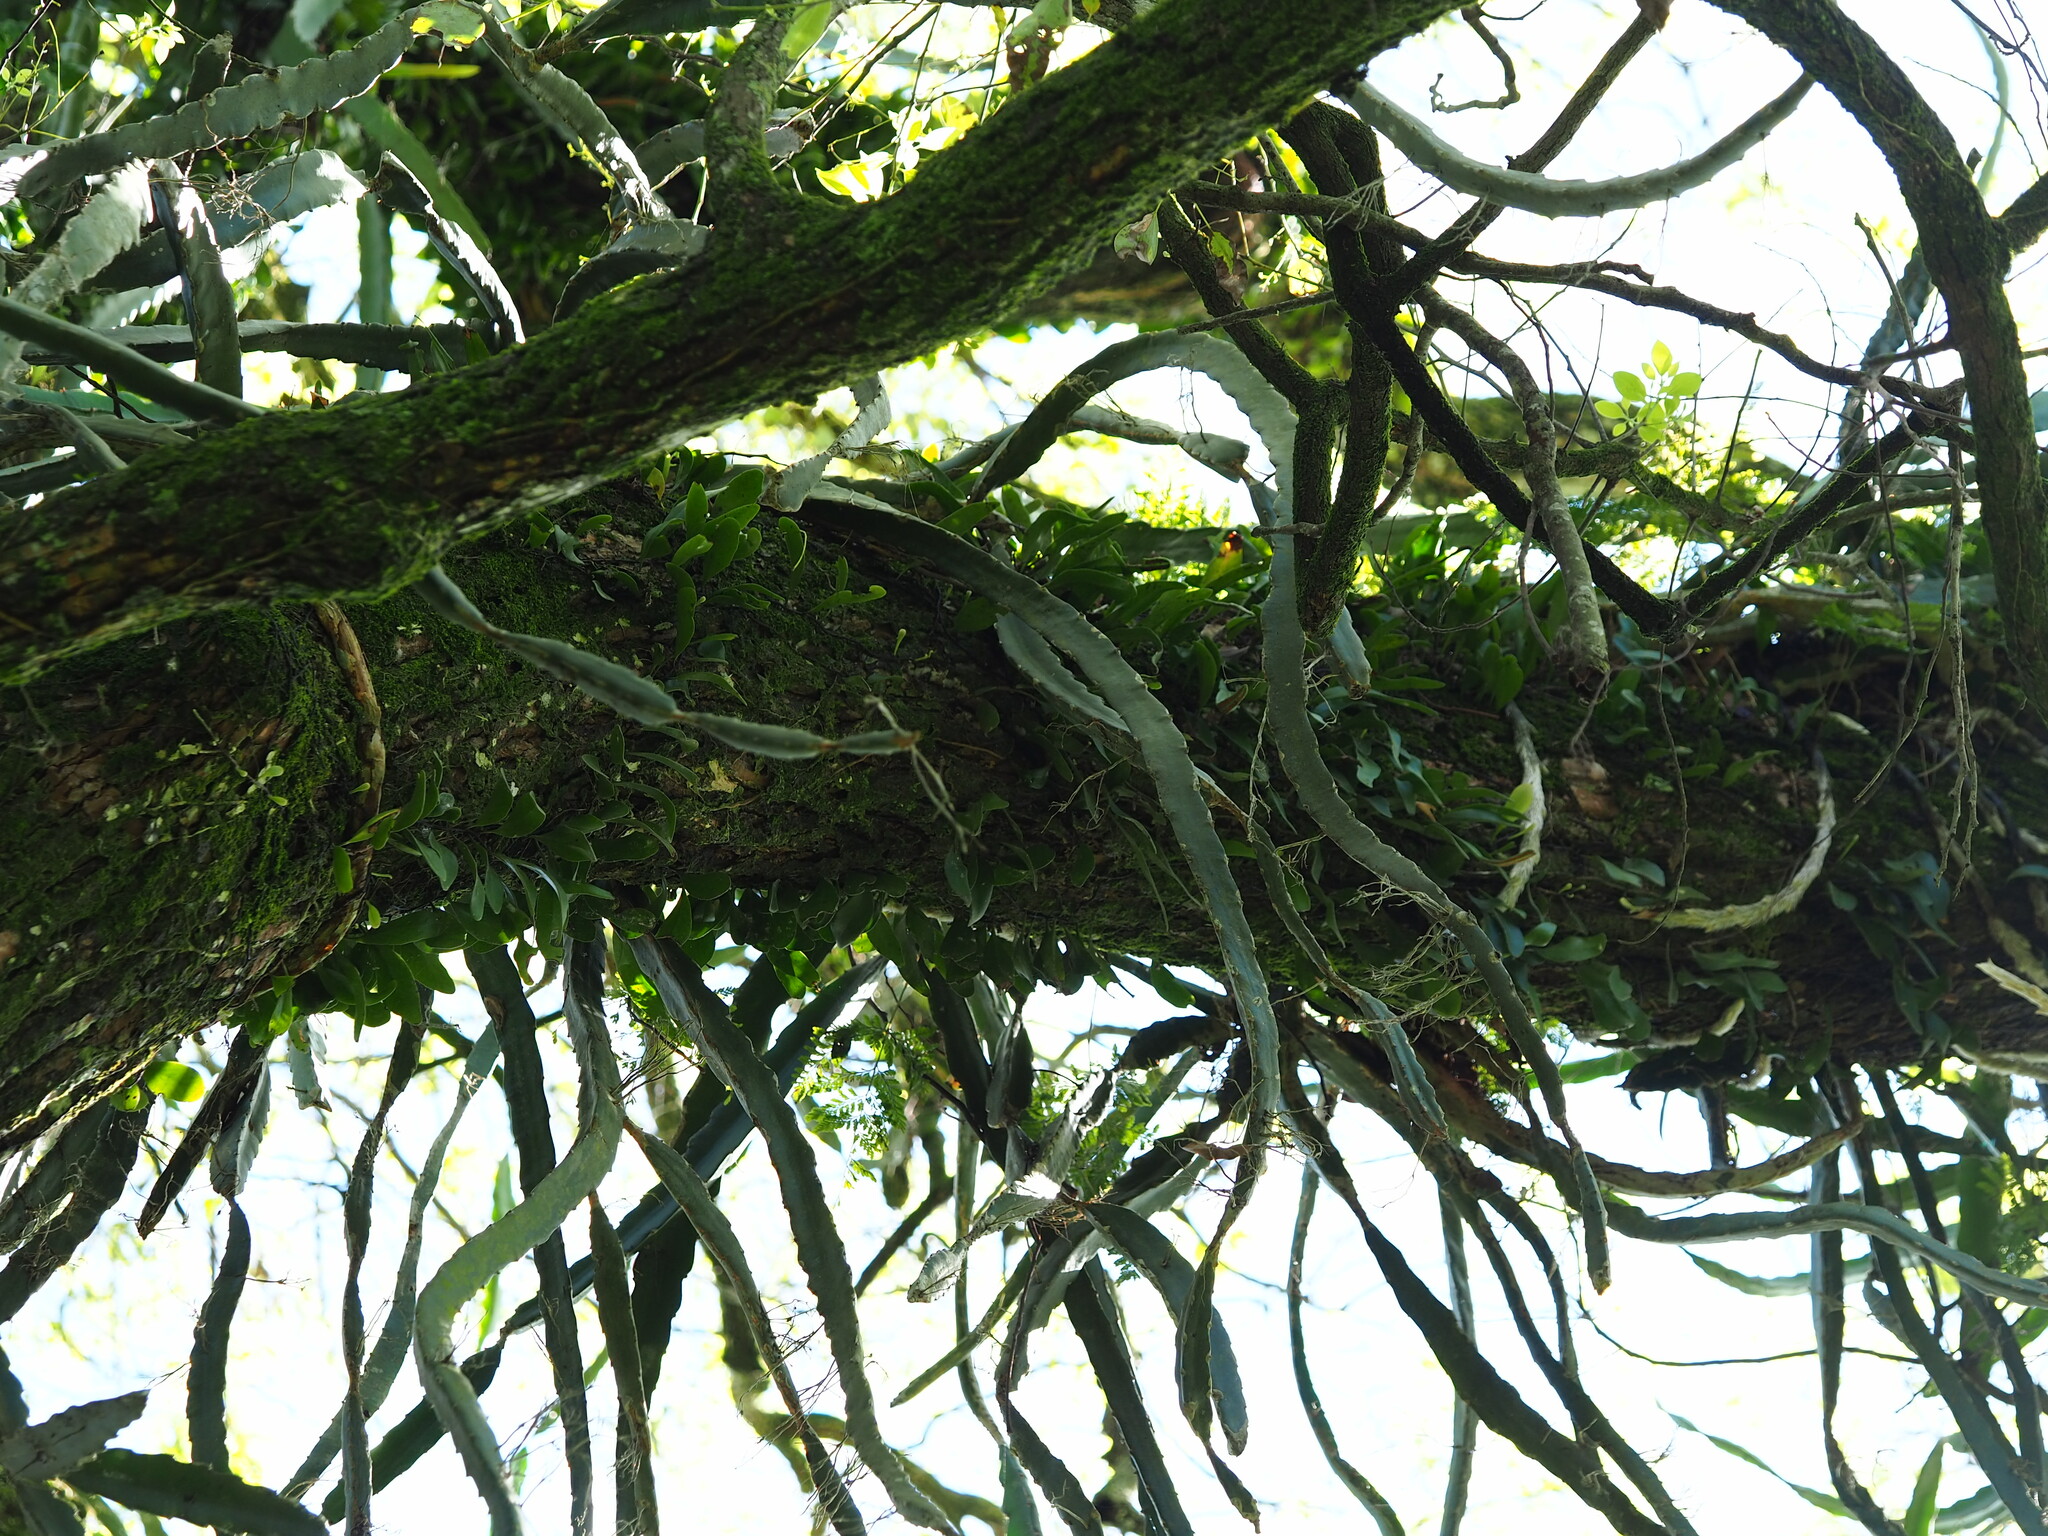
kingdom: Plantae
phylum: Tracheophyta
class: Magnoliopsida
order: Caryophyllales
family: Cactaceae
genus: Selenicereus
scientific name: Selenicereus undatus
